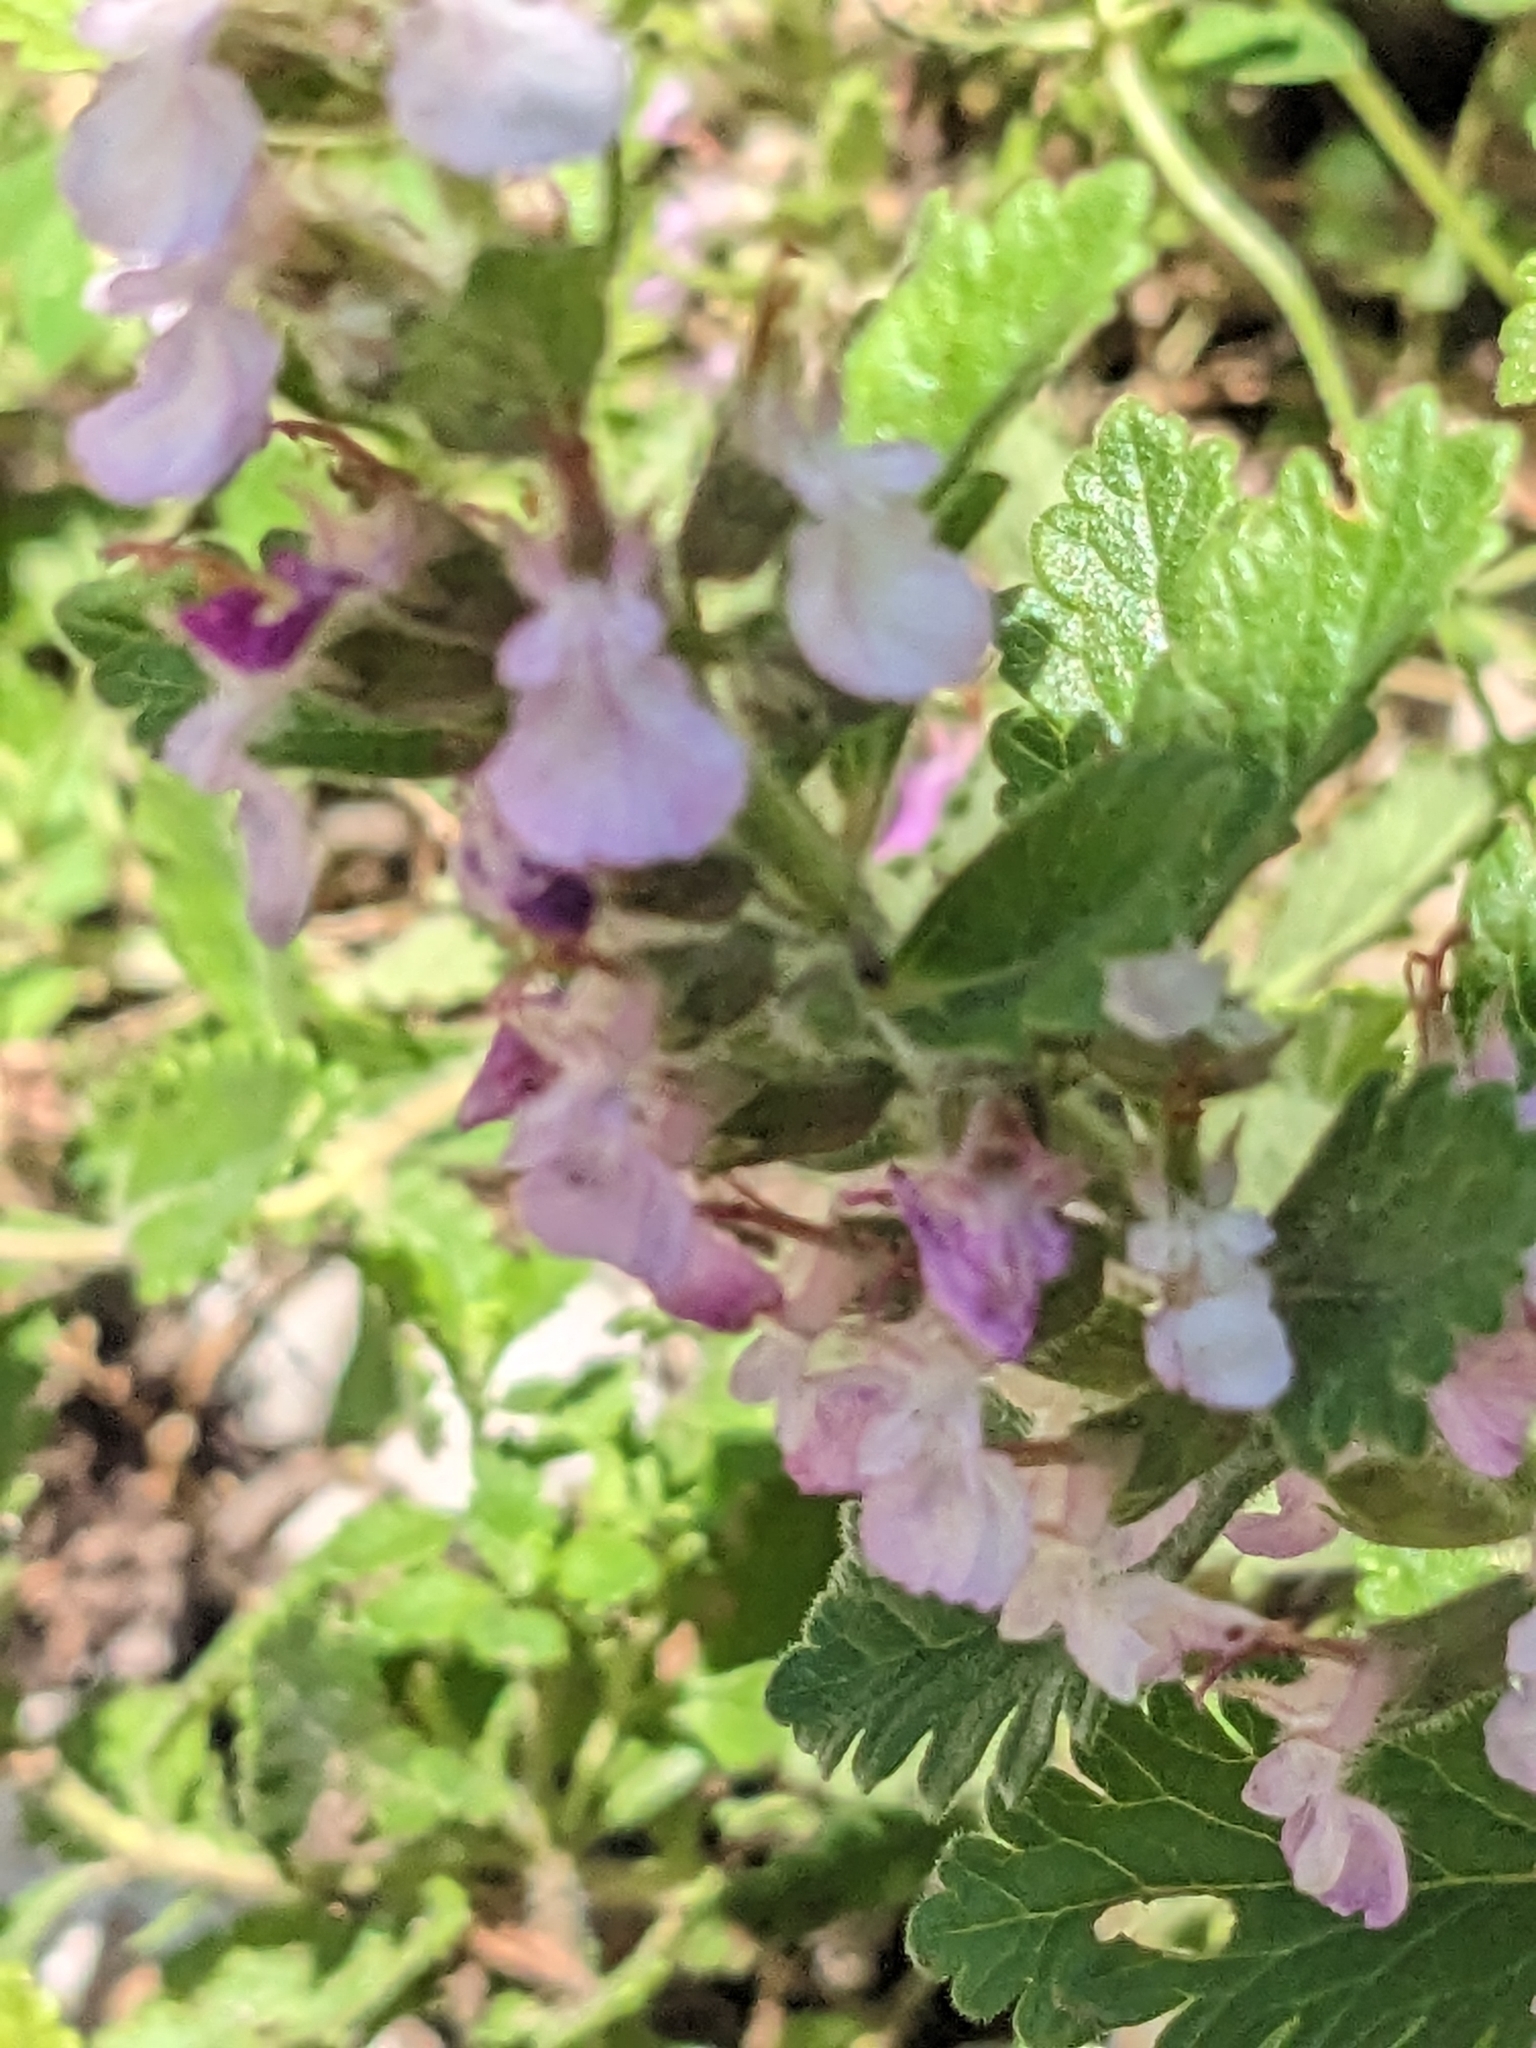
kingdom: Plantae
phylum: Tracheophyta
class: Magnoliopsida
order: Lamiales
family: Lamiaceae
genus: Teucrium
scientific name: Teucrium chamaedrys
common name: Wall germander
